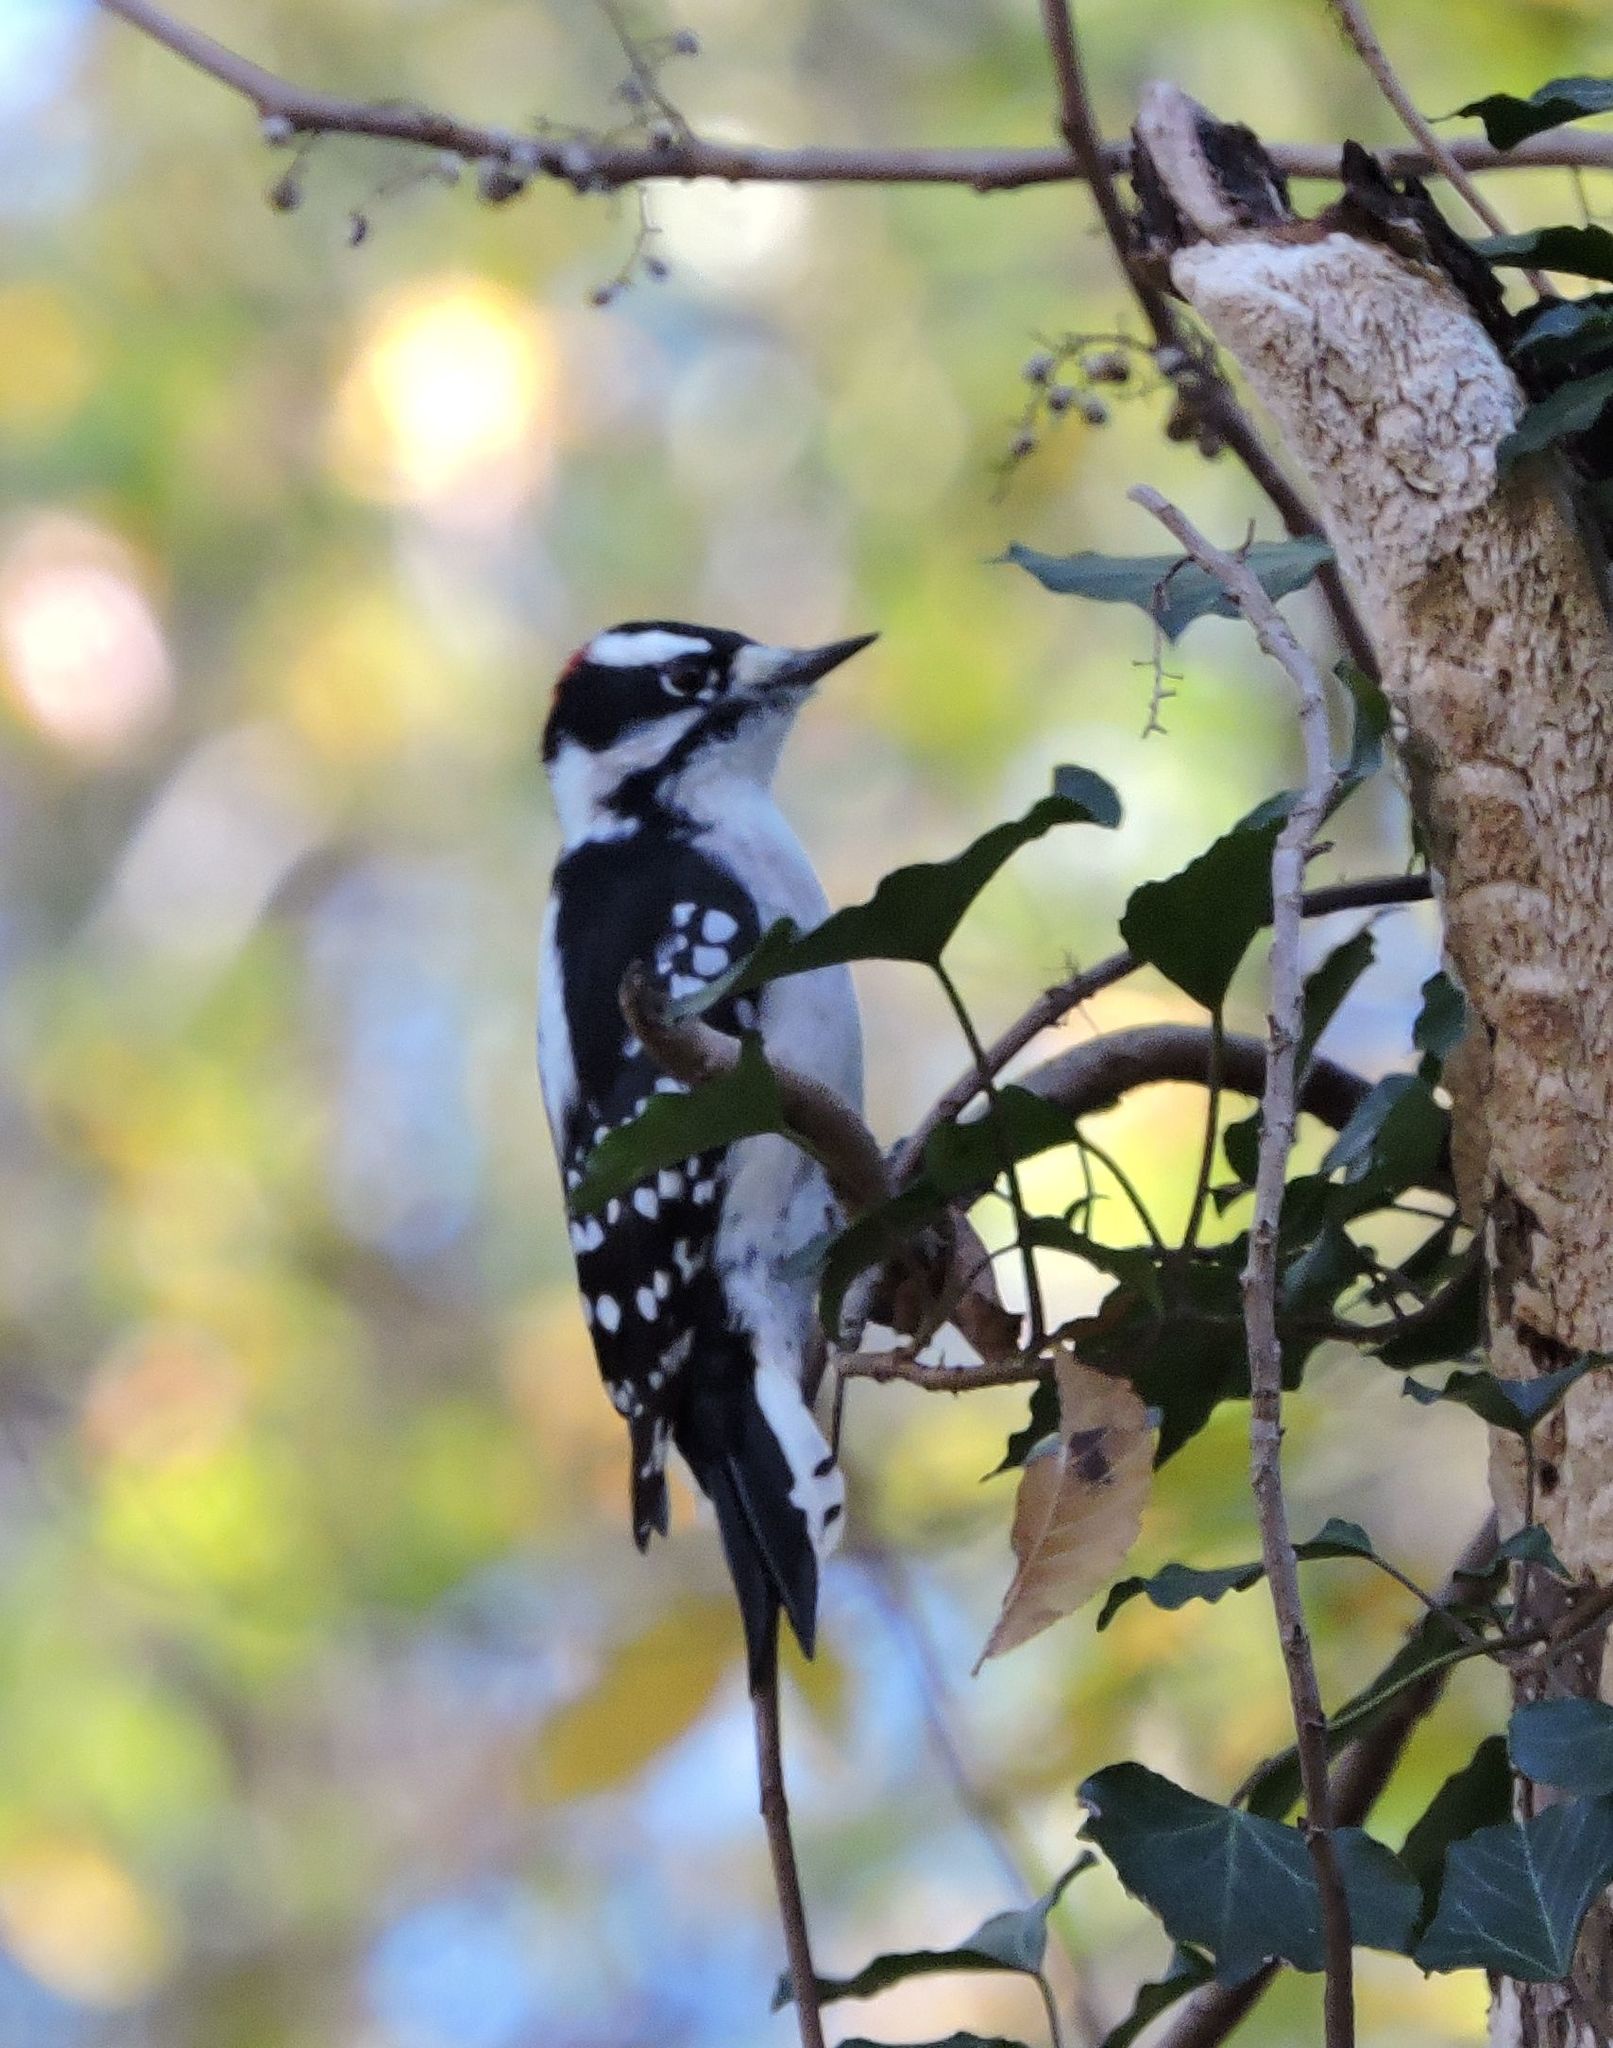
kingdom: Animalia
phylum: Chordata
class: Aves
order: Piciformes
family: Picidae
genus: Dryobates
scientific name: Dryobates pubescens
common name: Downy woodpecker
